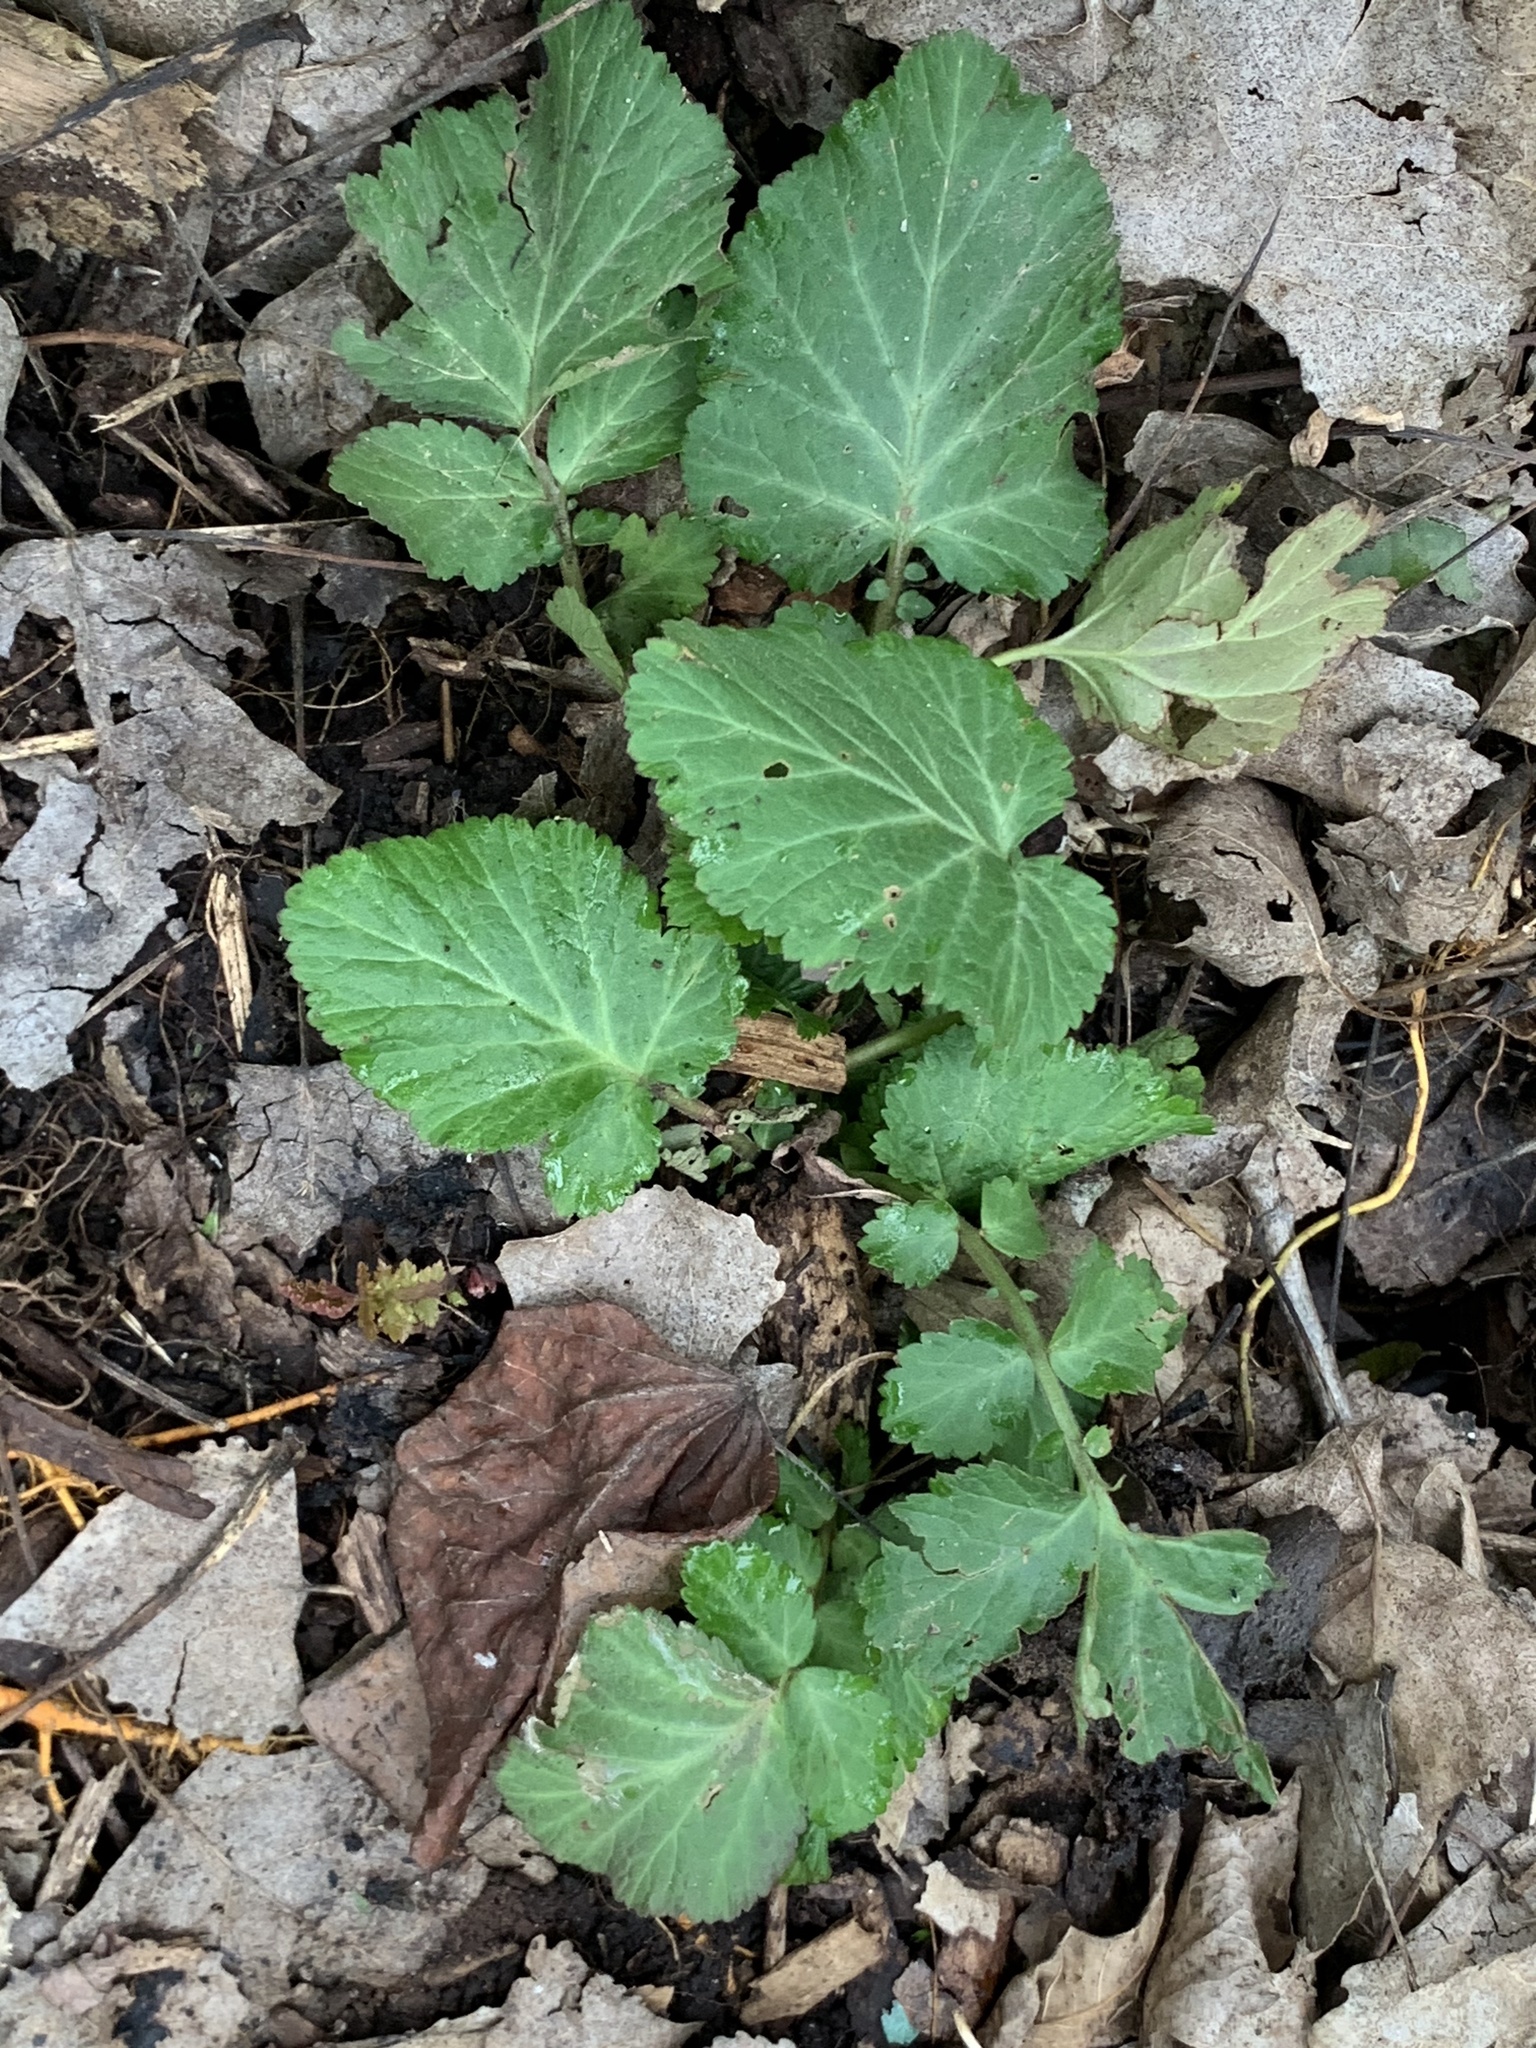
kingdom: Plantae
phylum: Tracheophyta
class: Magnoliopsida
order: Rosales
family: Rosaceae
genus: Geum
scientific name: Geum canadense
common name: White avens
